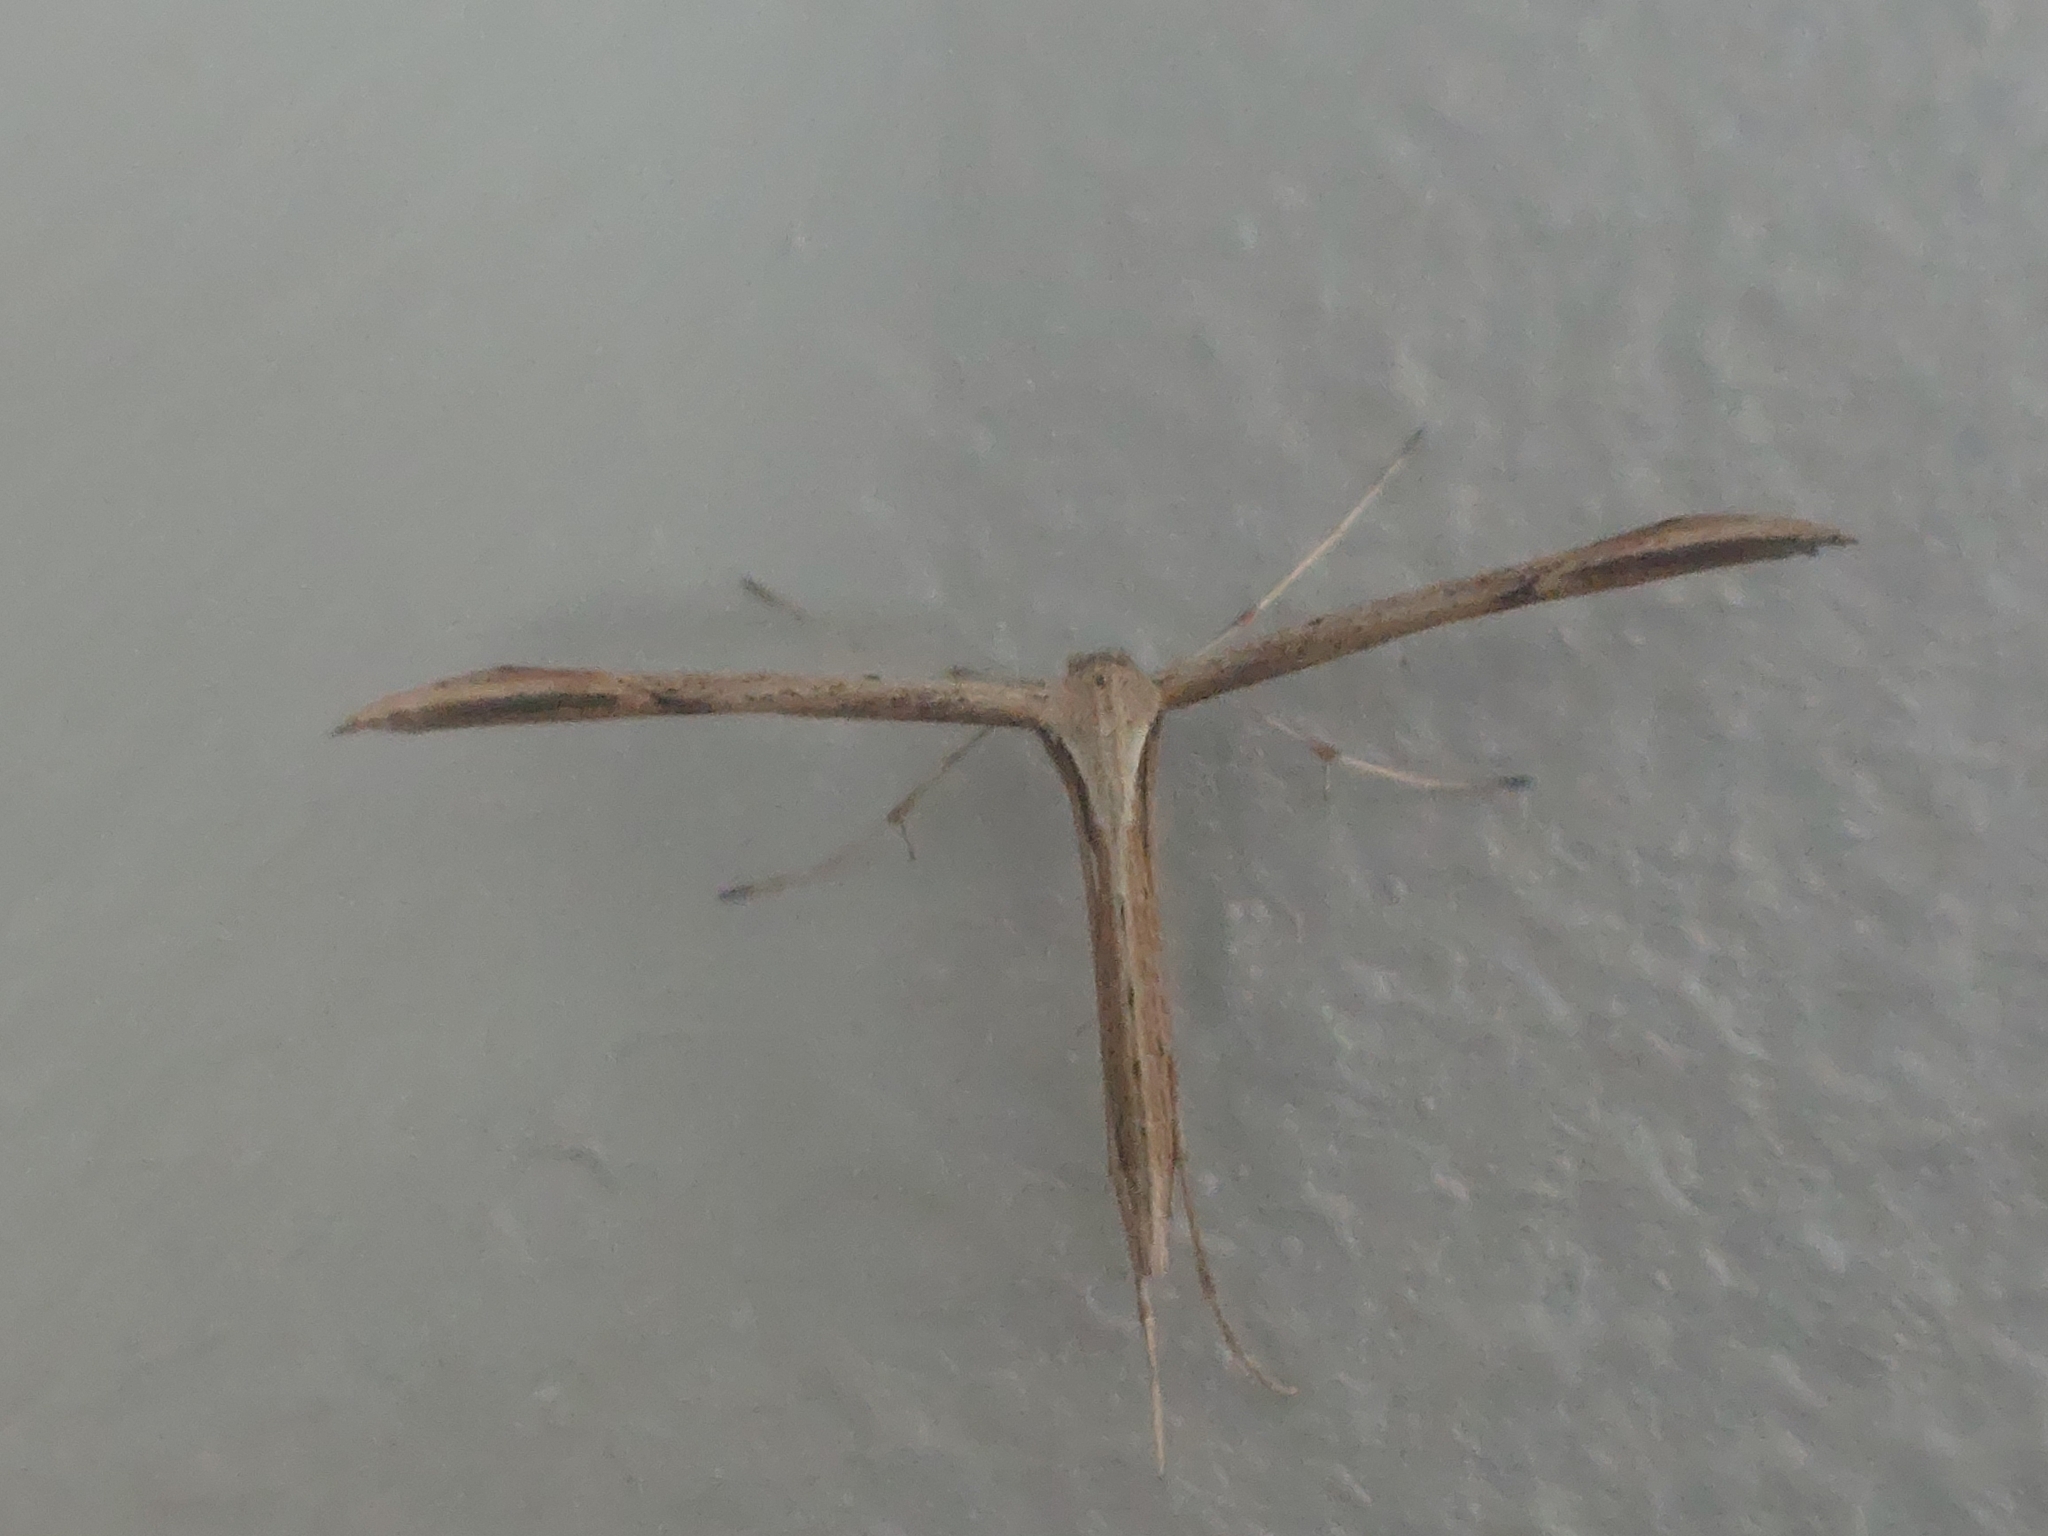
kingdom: Animalia
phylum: Arthropoda
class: Insecta
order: Lepidoptera
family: Pterophoridae
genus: Emmelina
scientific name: Emmelina monodactyla
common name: Common plume
